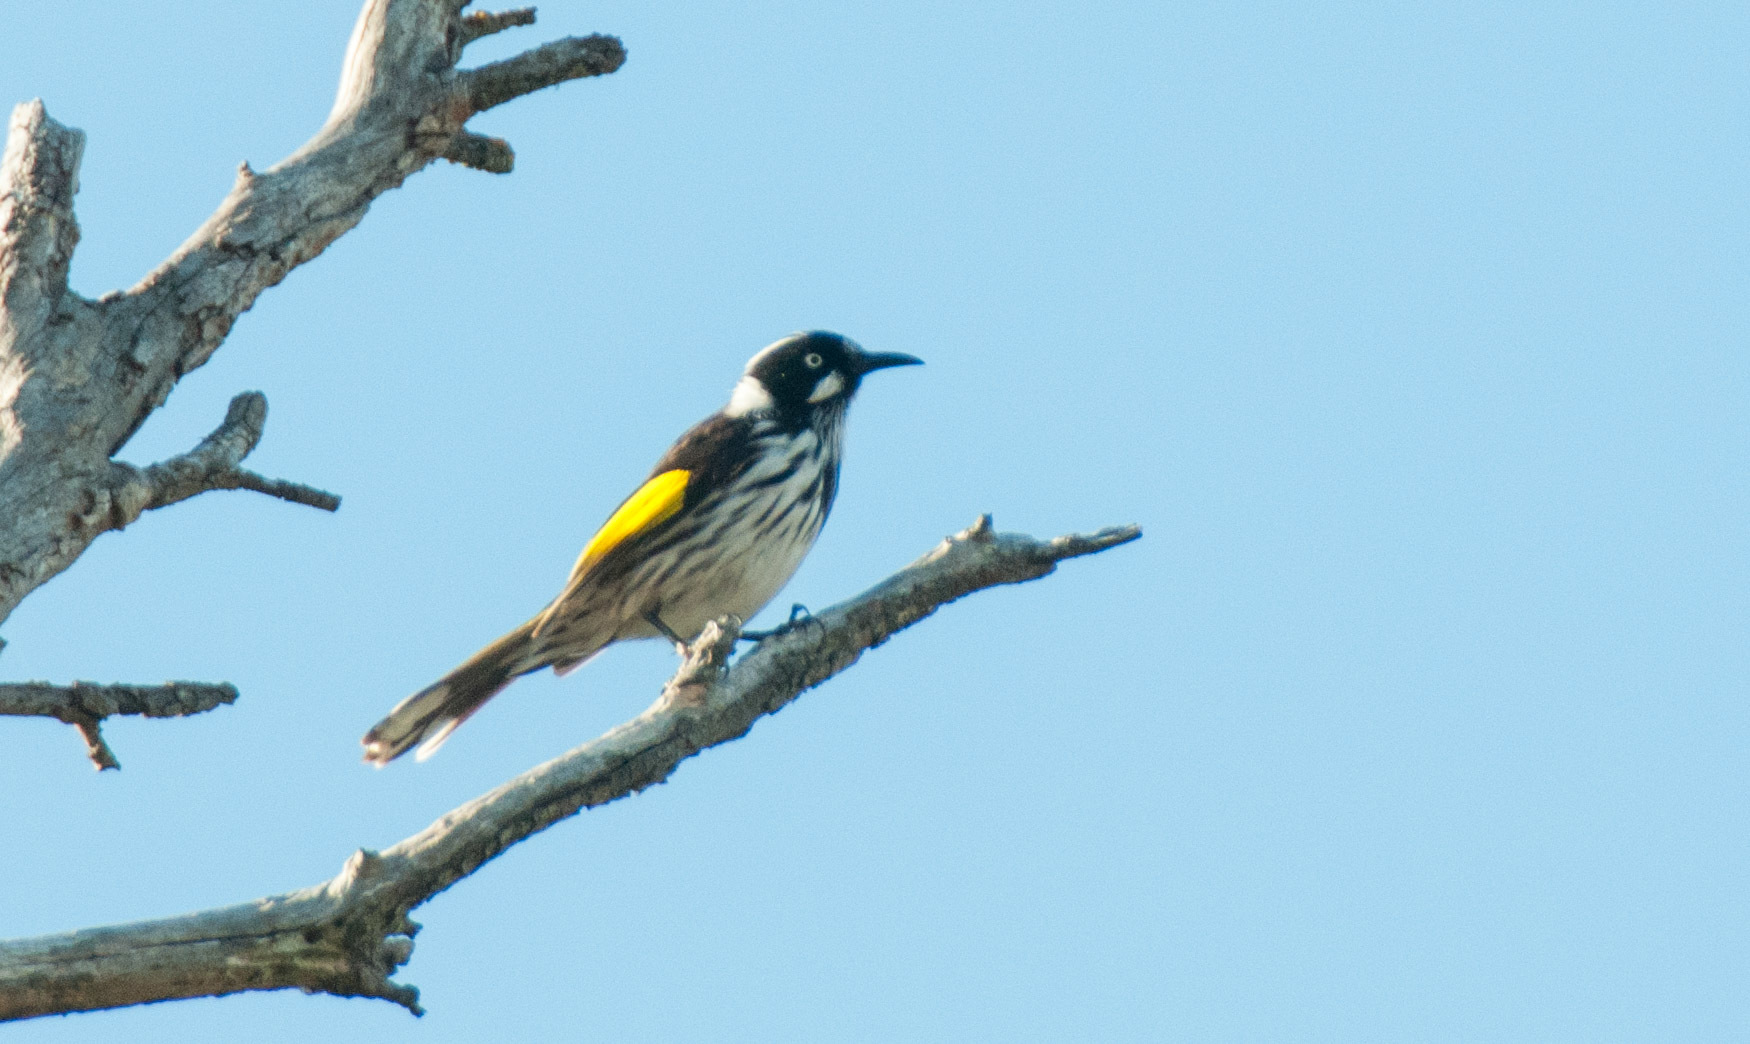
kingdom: Animalia
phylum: Chordata
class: Aves
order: Passeriformes
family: Meliphagidae
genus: Phylidonyris
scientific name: Phylidonyris novaehollandiae
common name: New holland honeyeater
